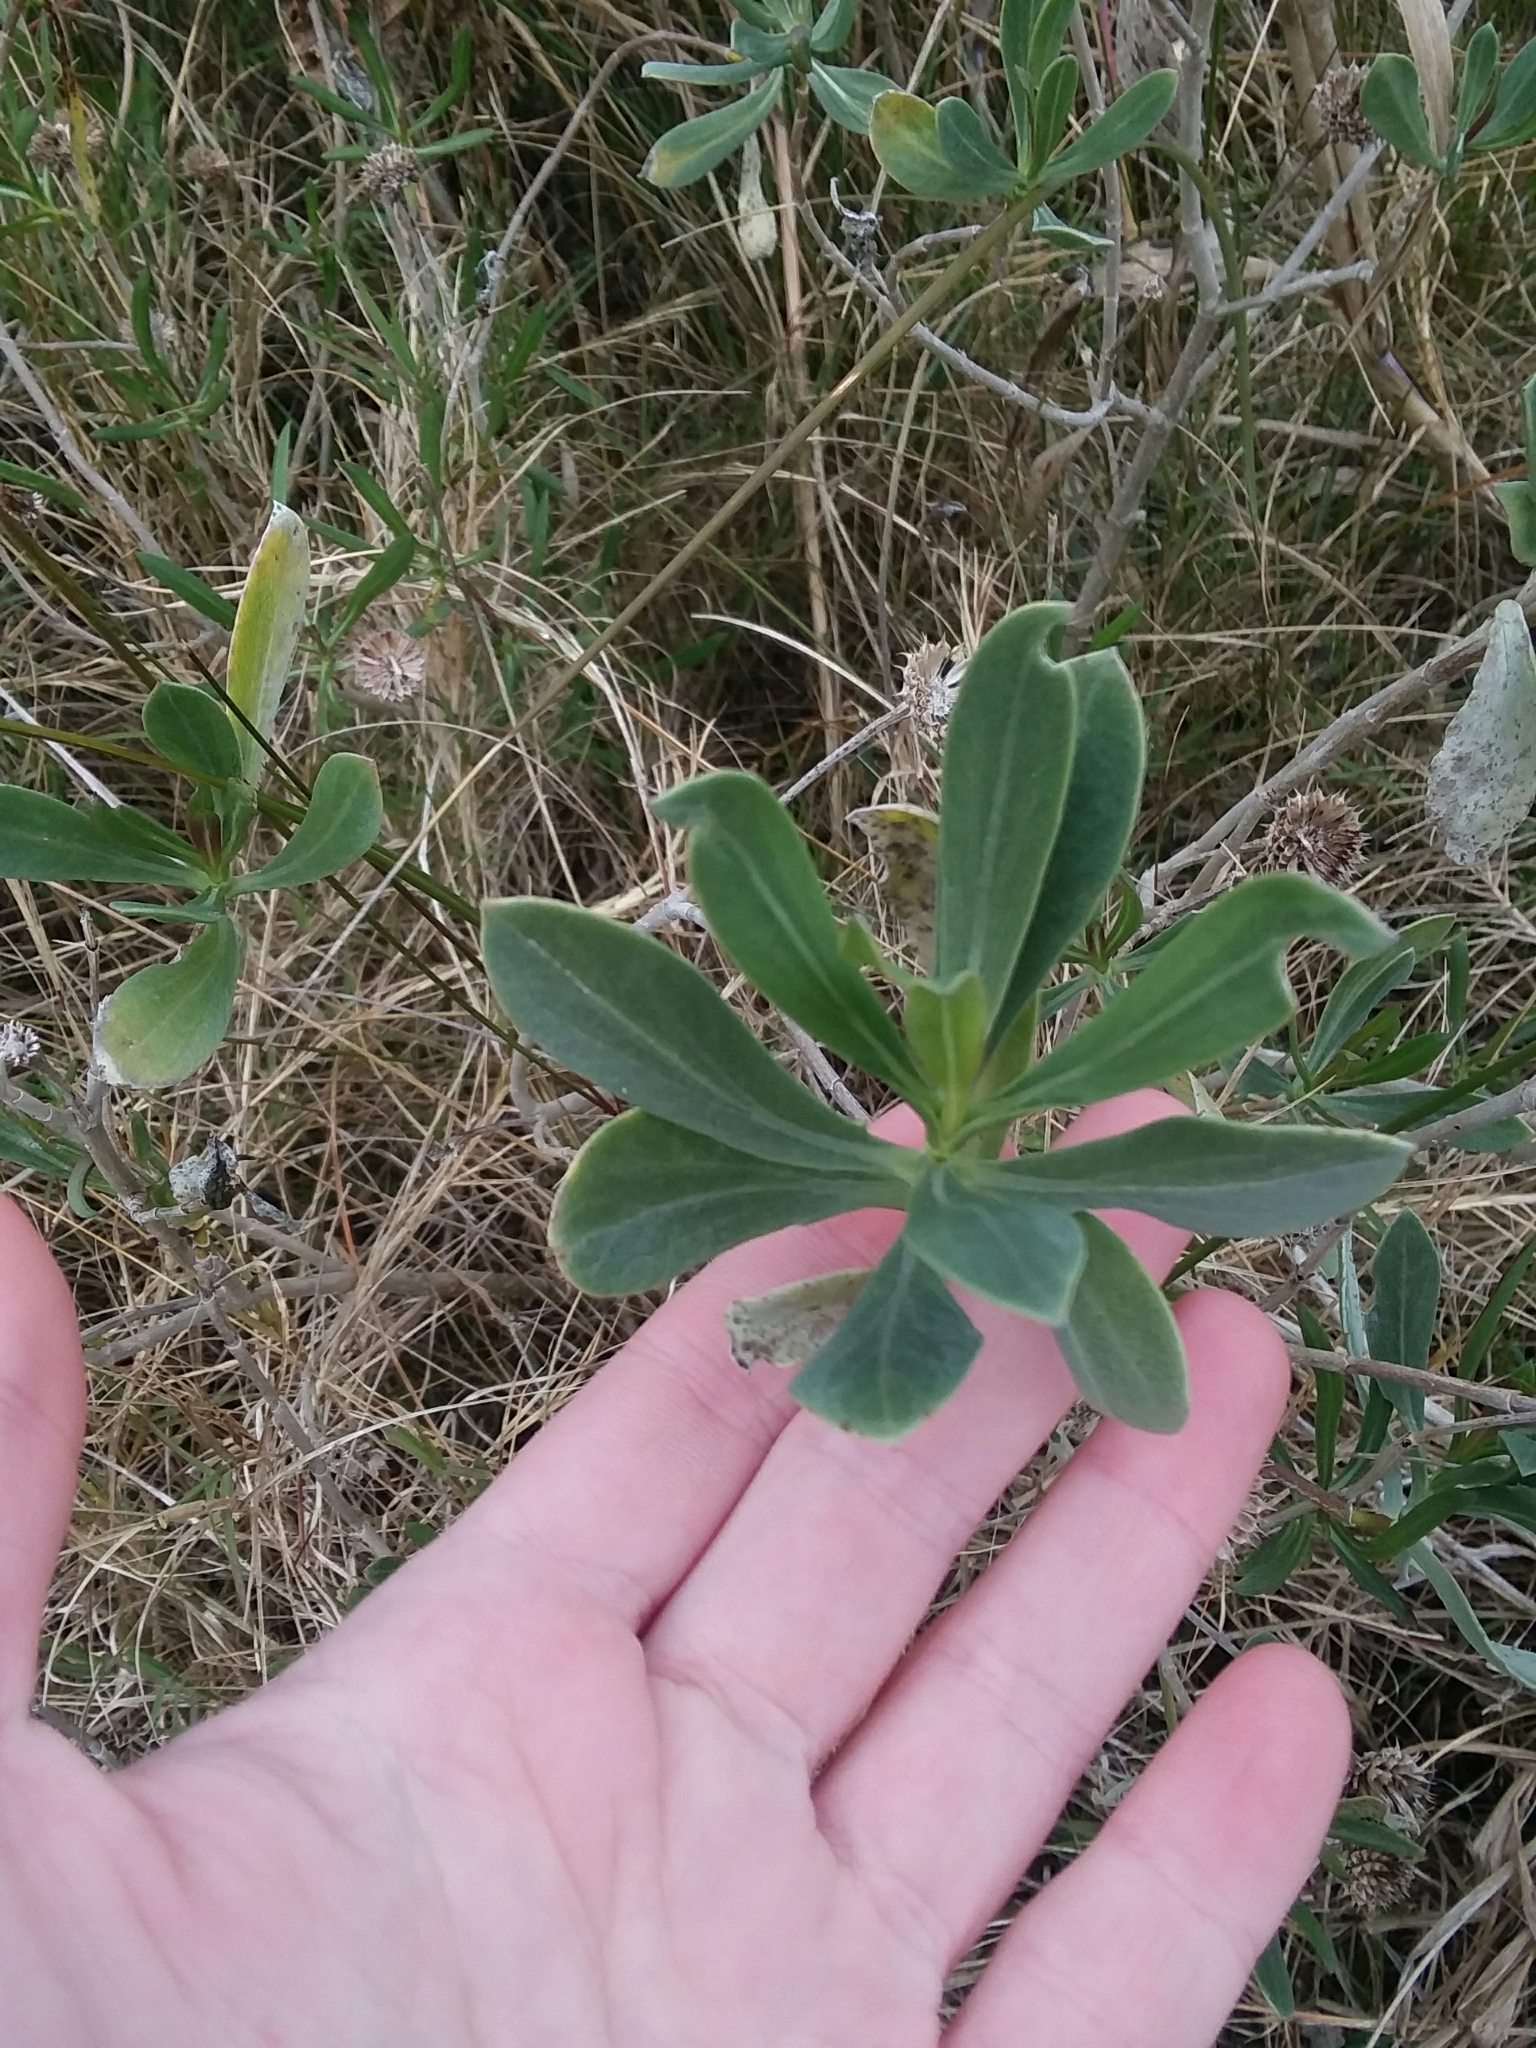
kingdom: Plantae
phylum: Tracheophyta
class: Magnoliopsida
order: Asterales
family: Asteraceae
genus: Borrichia
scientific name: Borrichia frutescens
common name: Sea oxeye
